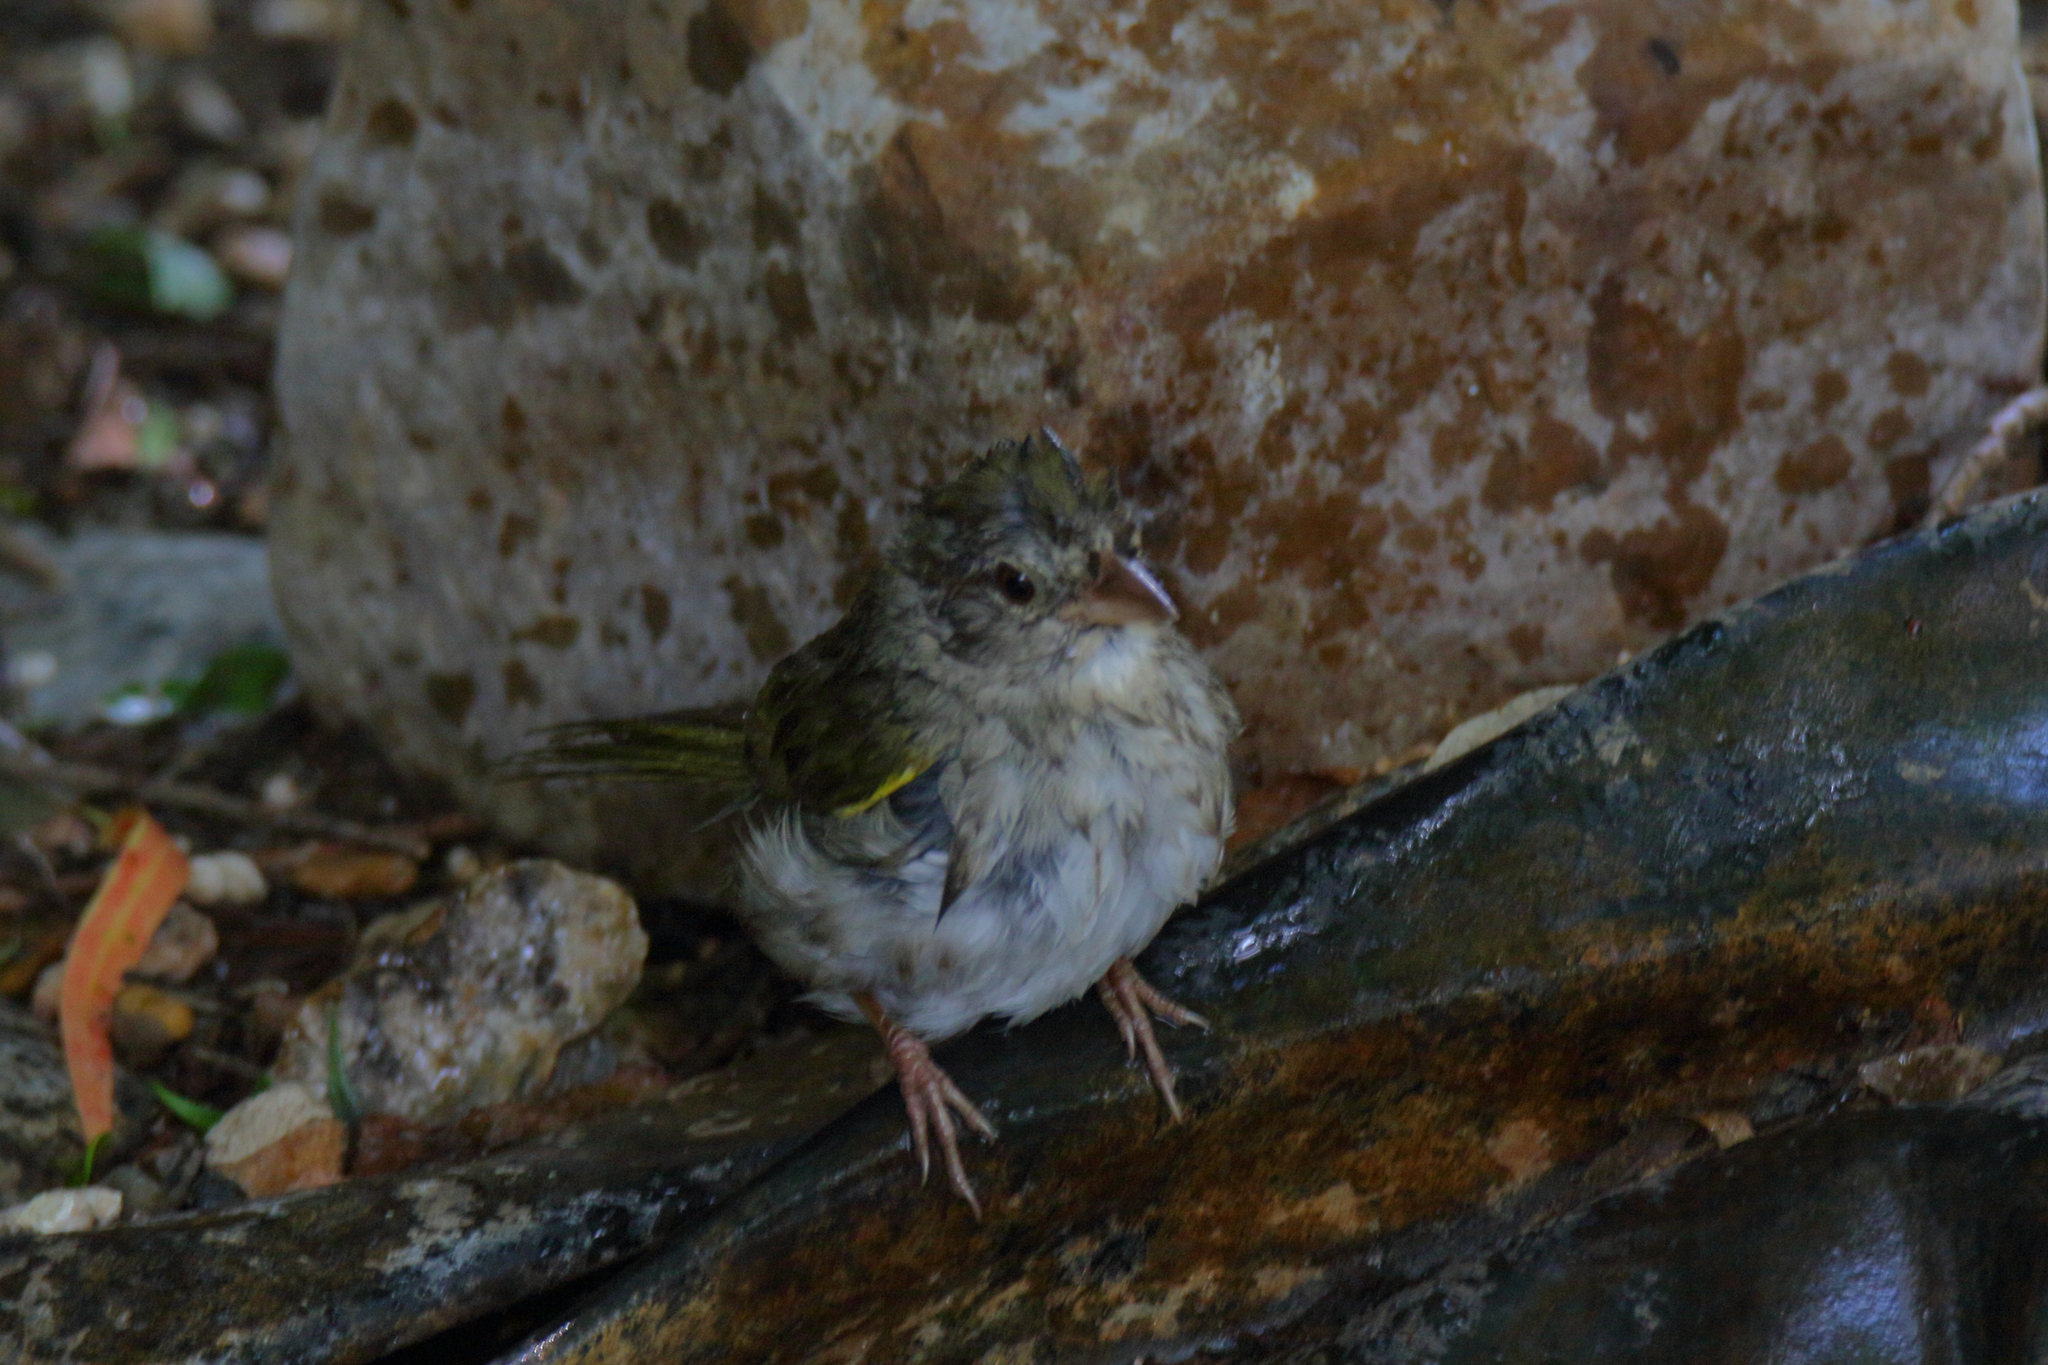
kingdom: Animalia
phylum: Chordata
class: Aves
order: Passeriformes
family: Passerellidae
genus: Arremonops
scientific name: Arremonops rufivirgatus
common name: Olive sparrow
